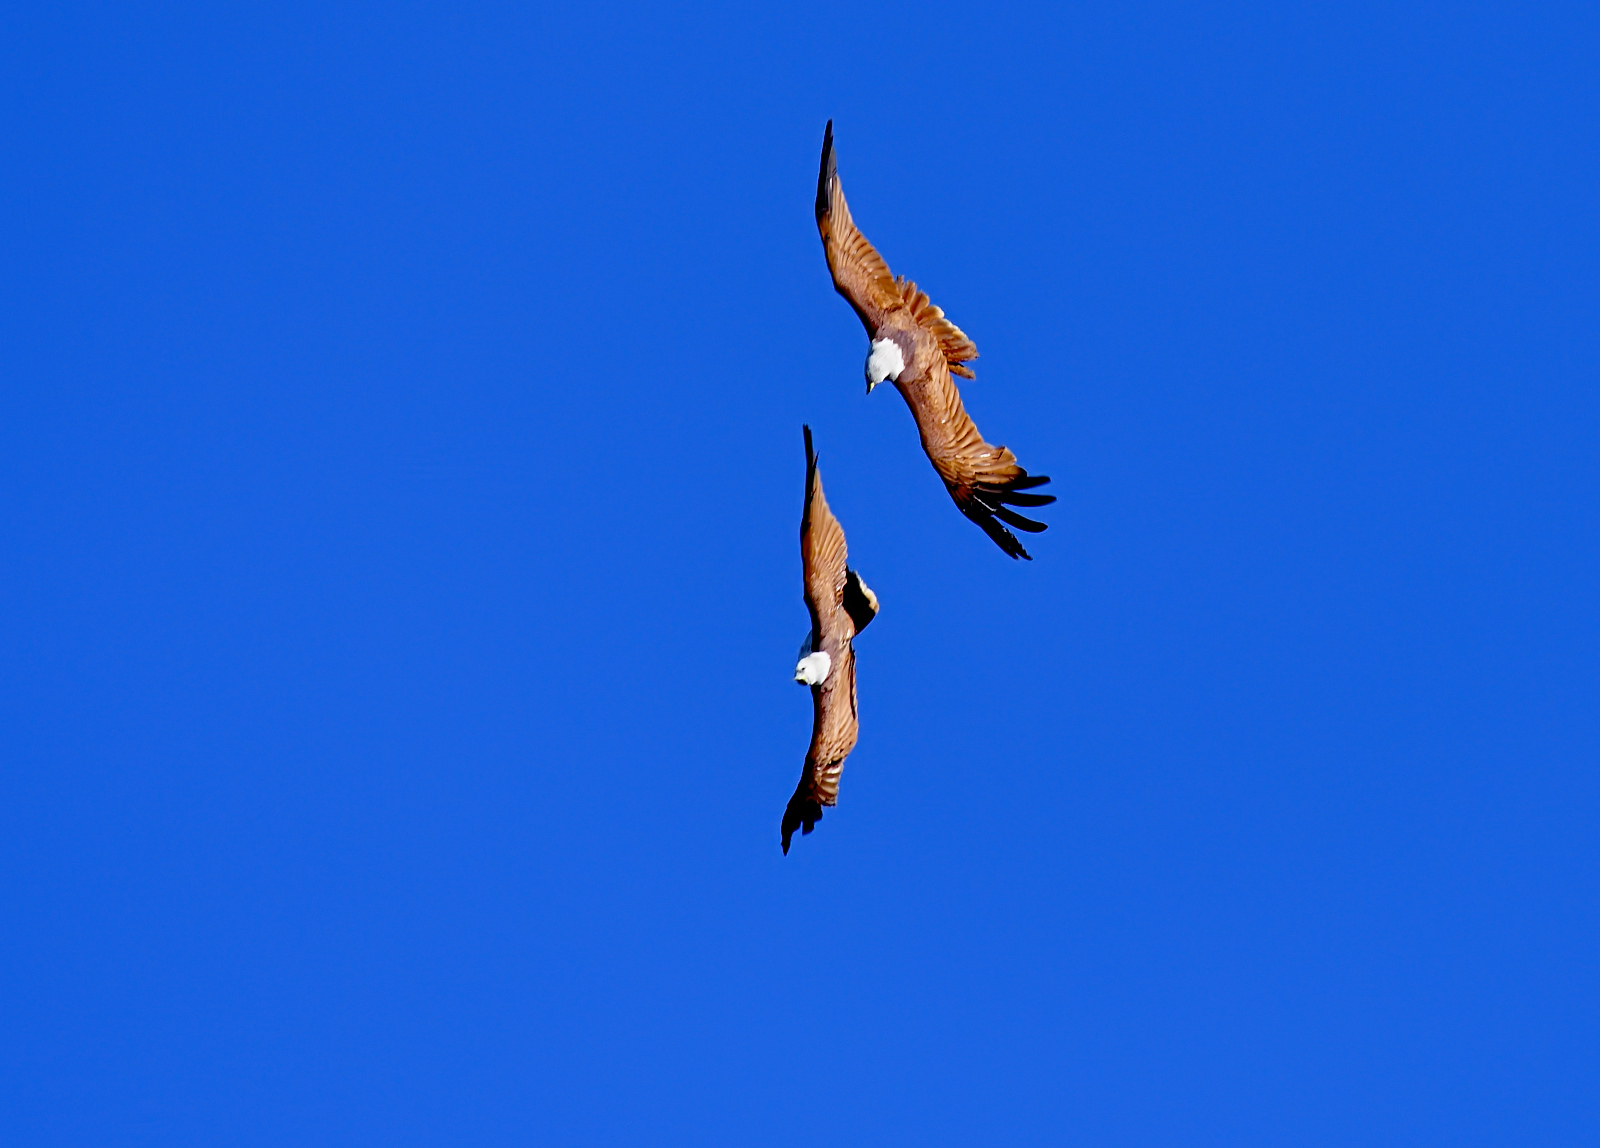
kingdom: Animalia
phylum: Chordata
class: Aves
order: Accipitriformes
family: Accipitridae
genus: Haliastur
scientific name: Haliastur indus
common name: Brahminy kite
